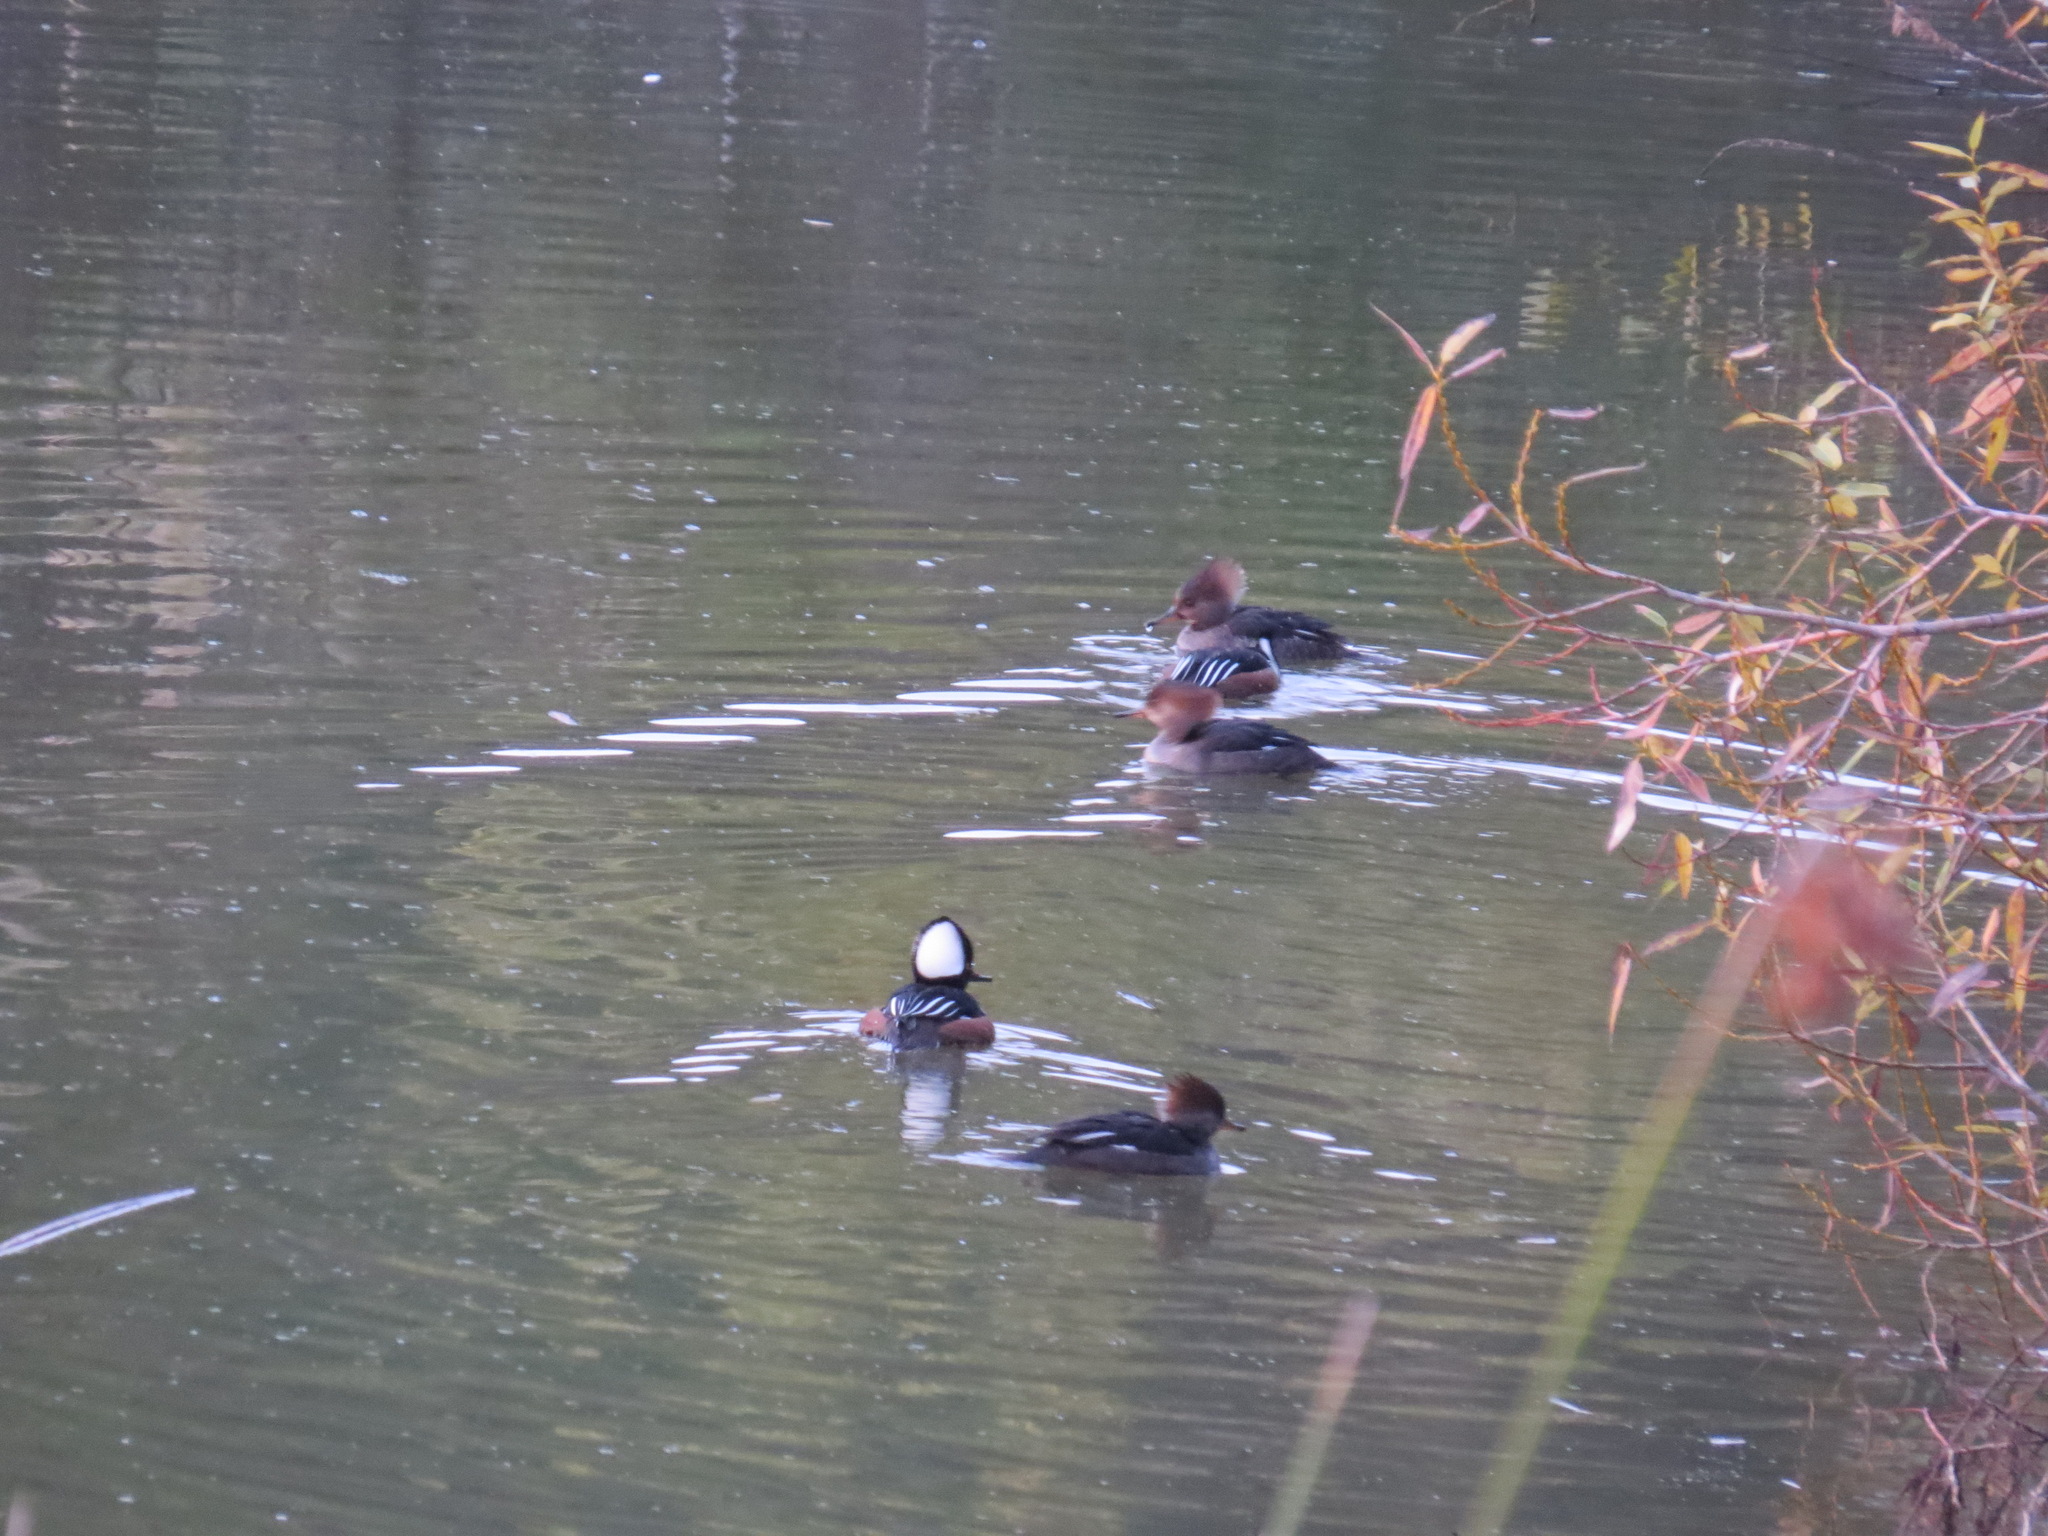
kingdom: Animalia
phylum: Chordata
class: Aves
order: Anseriformes
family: Anatidae
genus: Lophodytes
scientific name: Lophodytes cucullatus
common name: Hooded merganser
